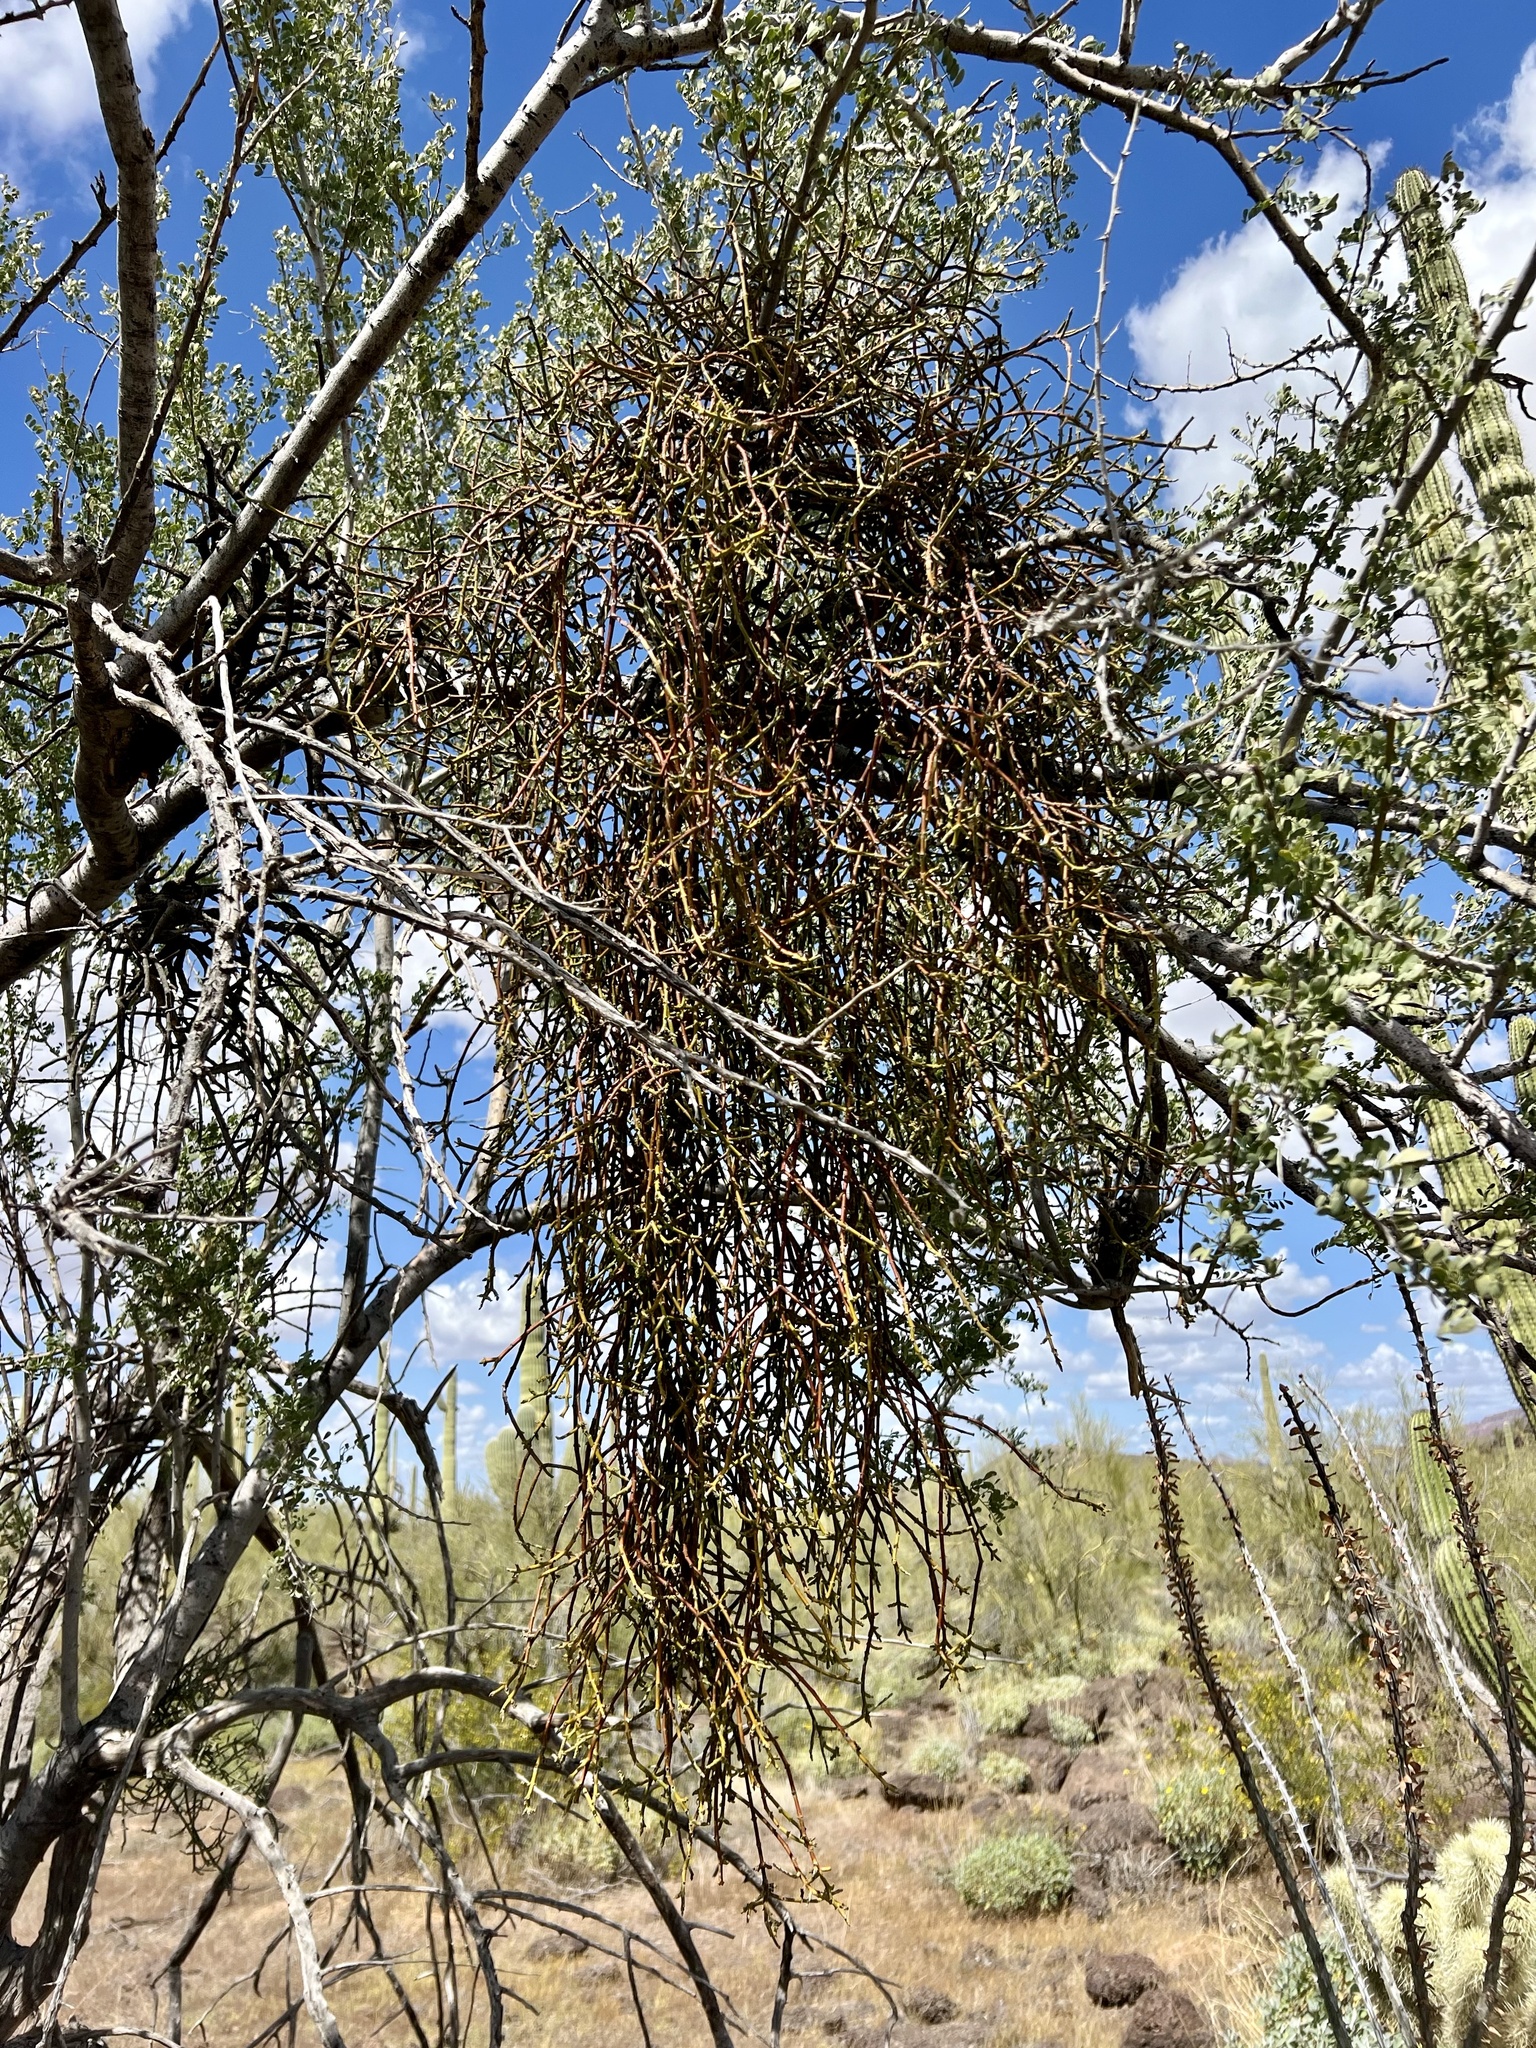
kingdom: Plantae
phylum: Tracheophyta
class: Magnoliopsida
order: Santalales
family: Viscaceae
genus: Phoradendron
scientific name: Phoradendron californicum
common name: Acacia mistletoe
